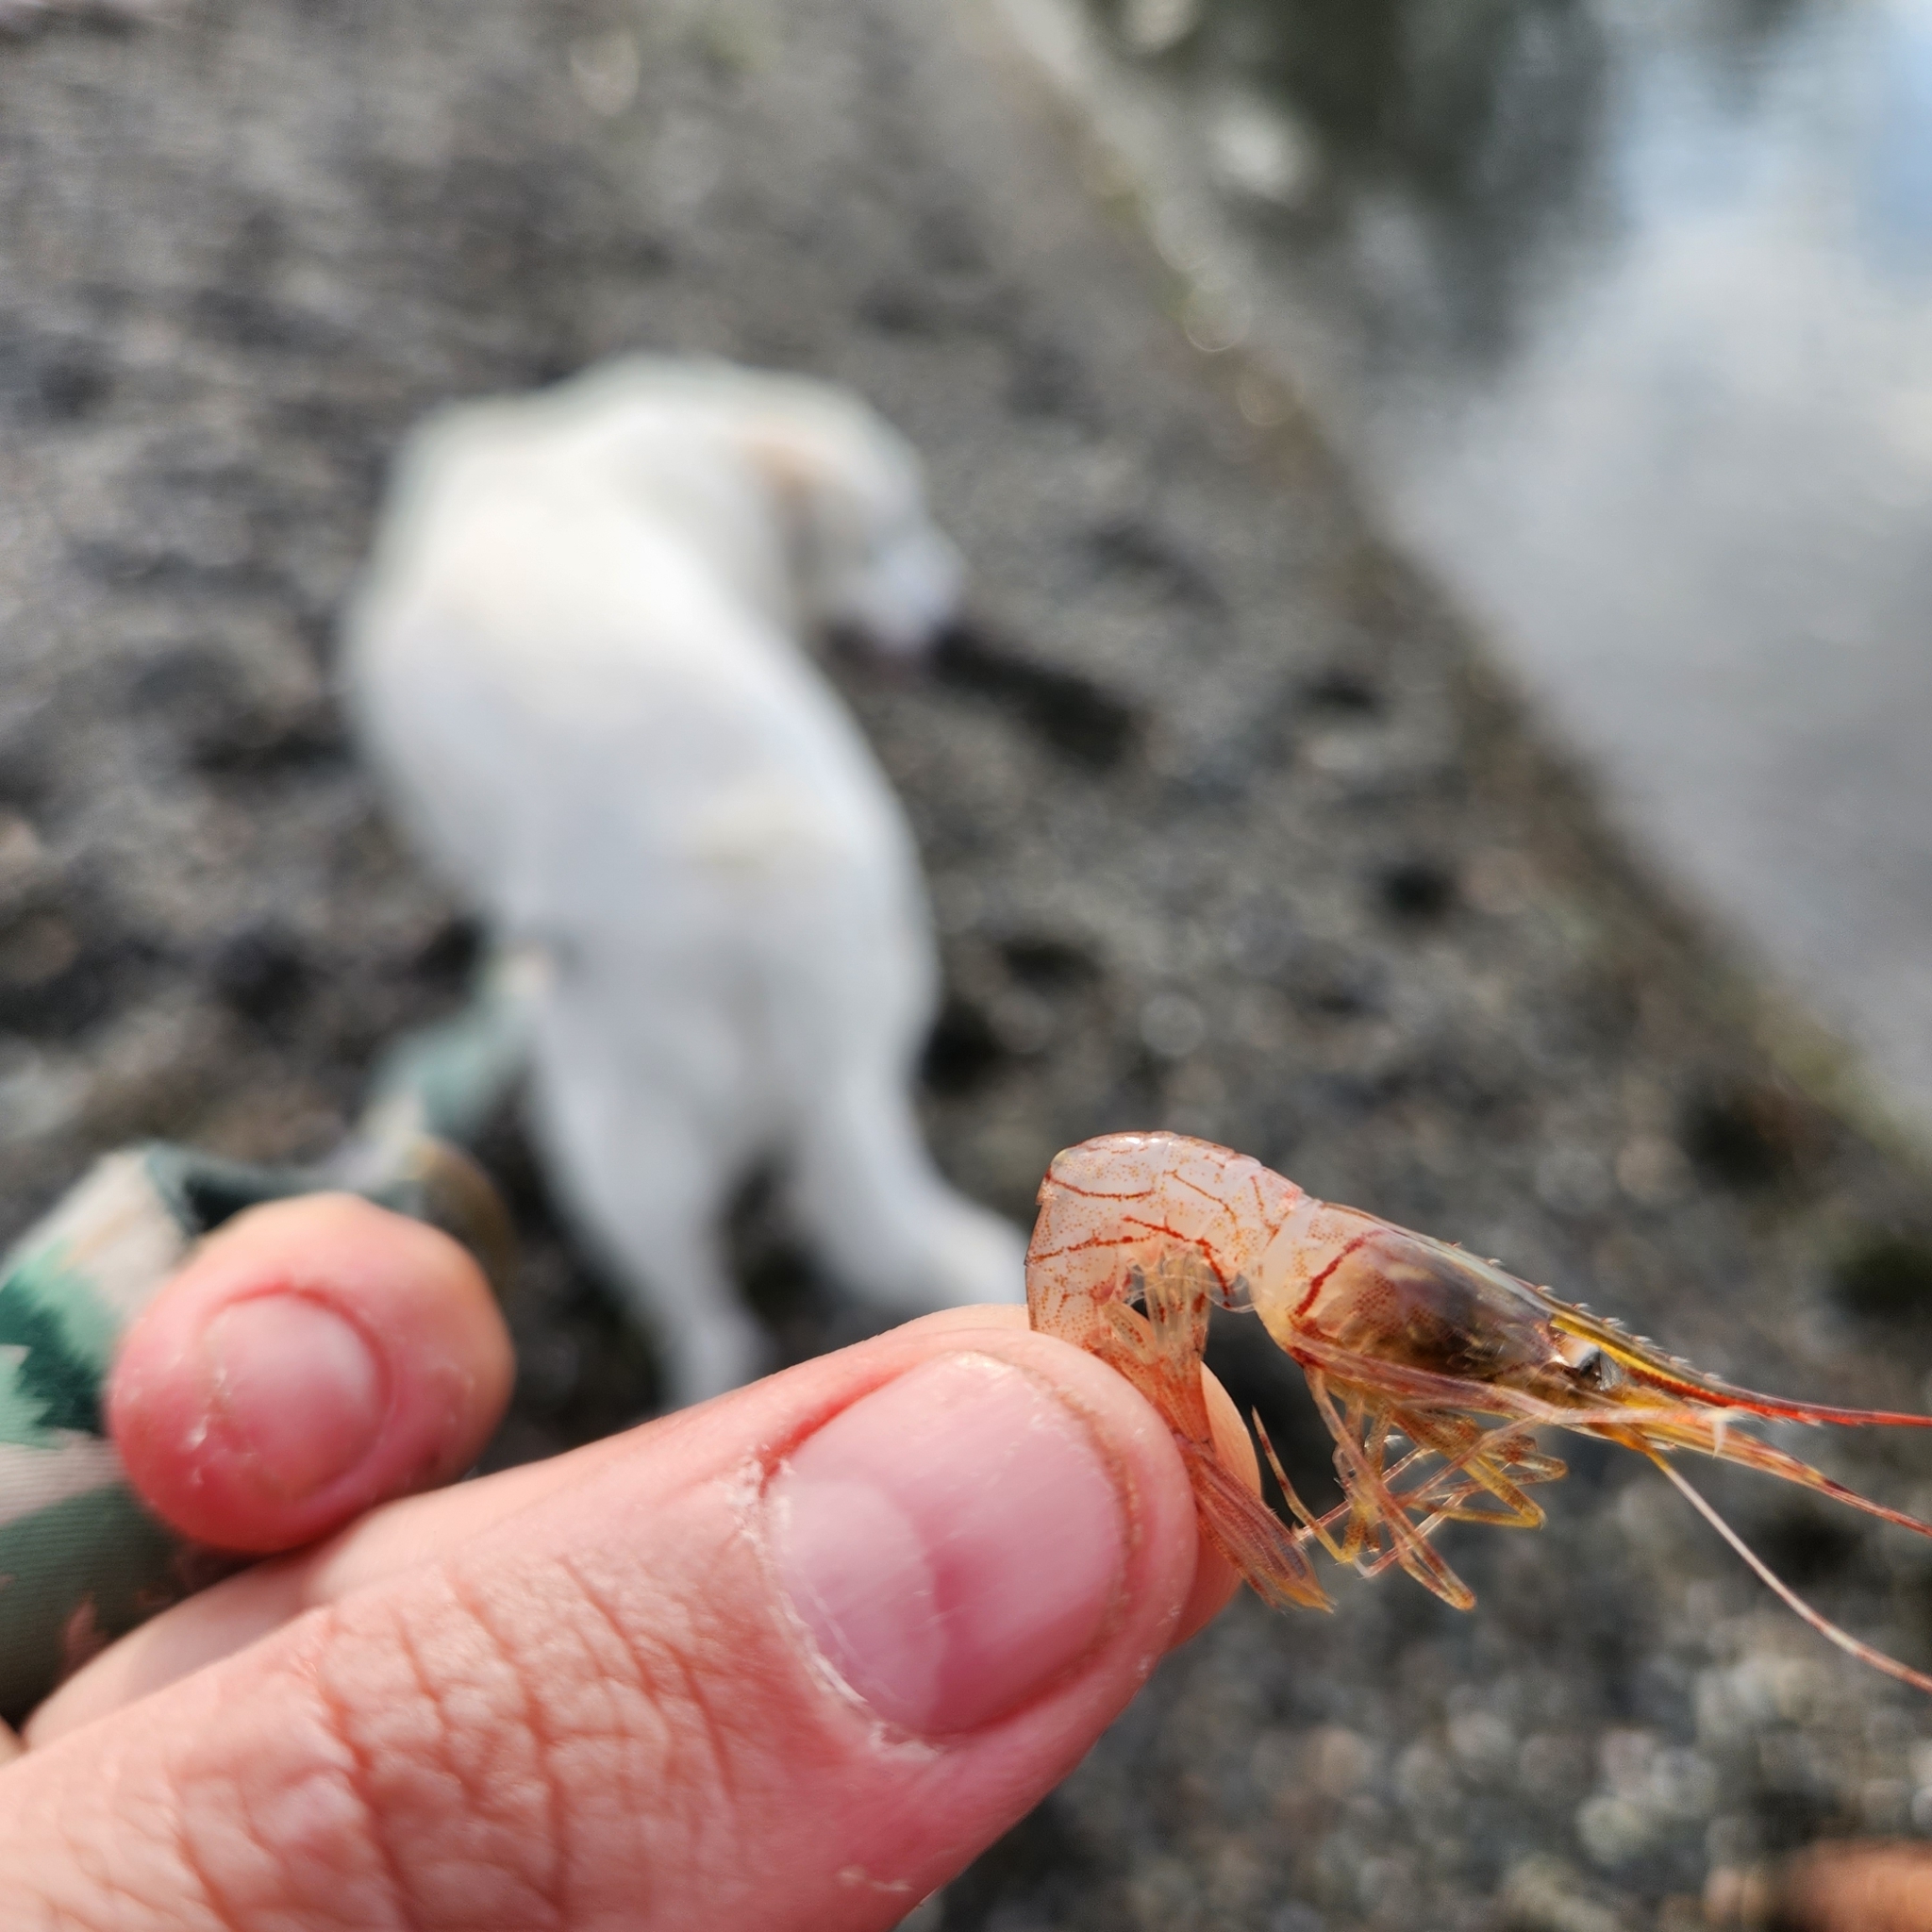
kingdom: Animalia
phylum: Arthropoda
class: Malacostraca
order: Decapoda
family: Pandalidae
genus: Pandalus
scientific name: Pandalus goniurus
